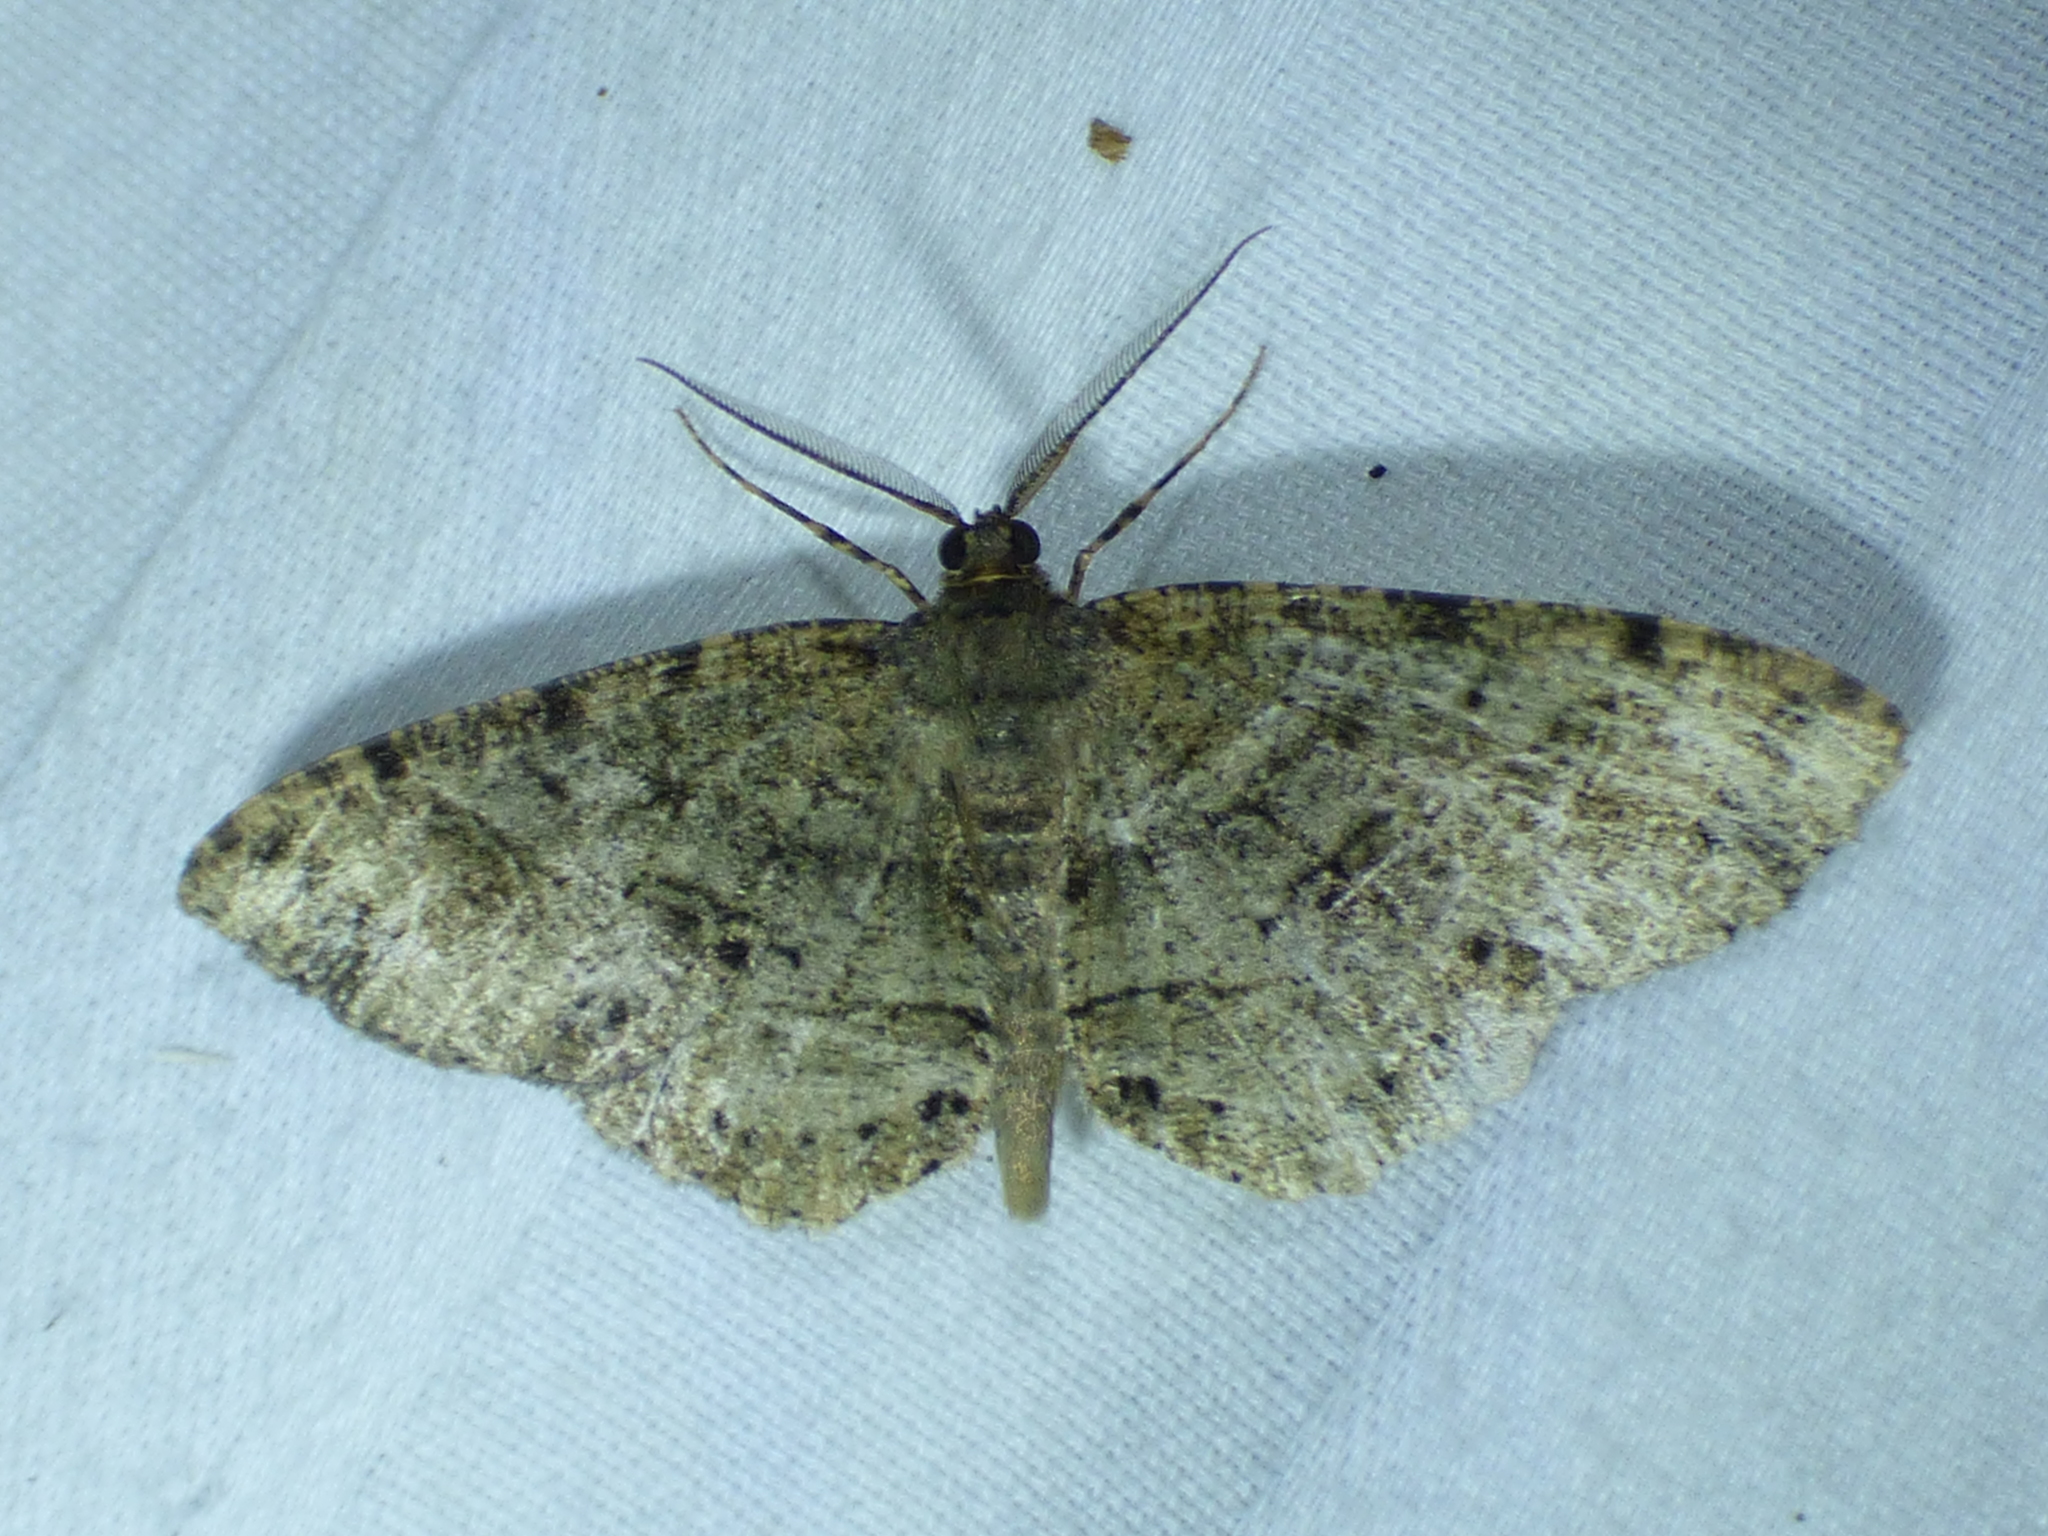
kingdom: Animalia
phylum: Arthropoda
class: Insecta
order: Lepidoptera
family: Geometridae
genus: Melanolophia
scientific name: Melanolophia canadaria
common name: Canadian melanolophia
